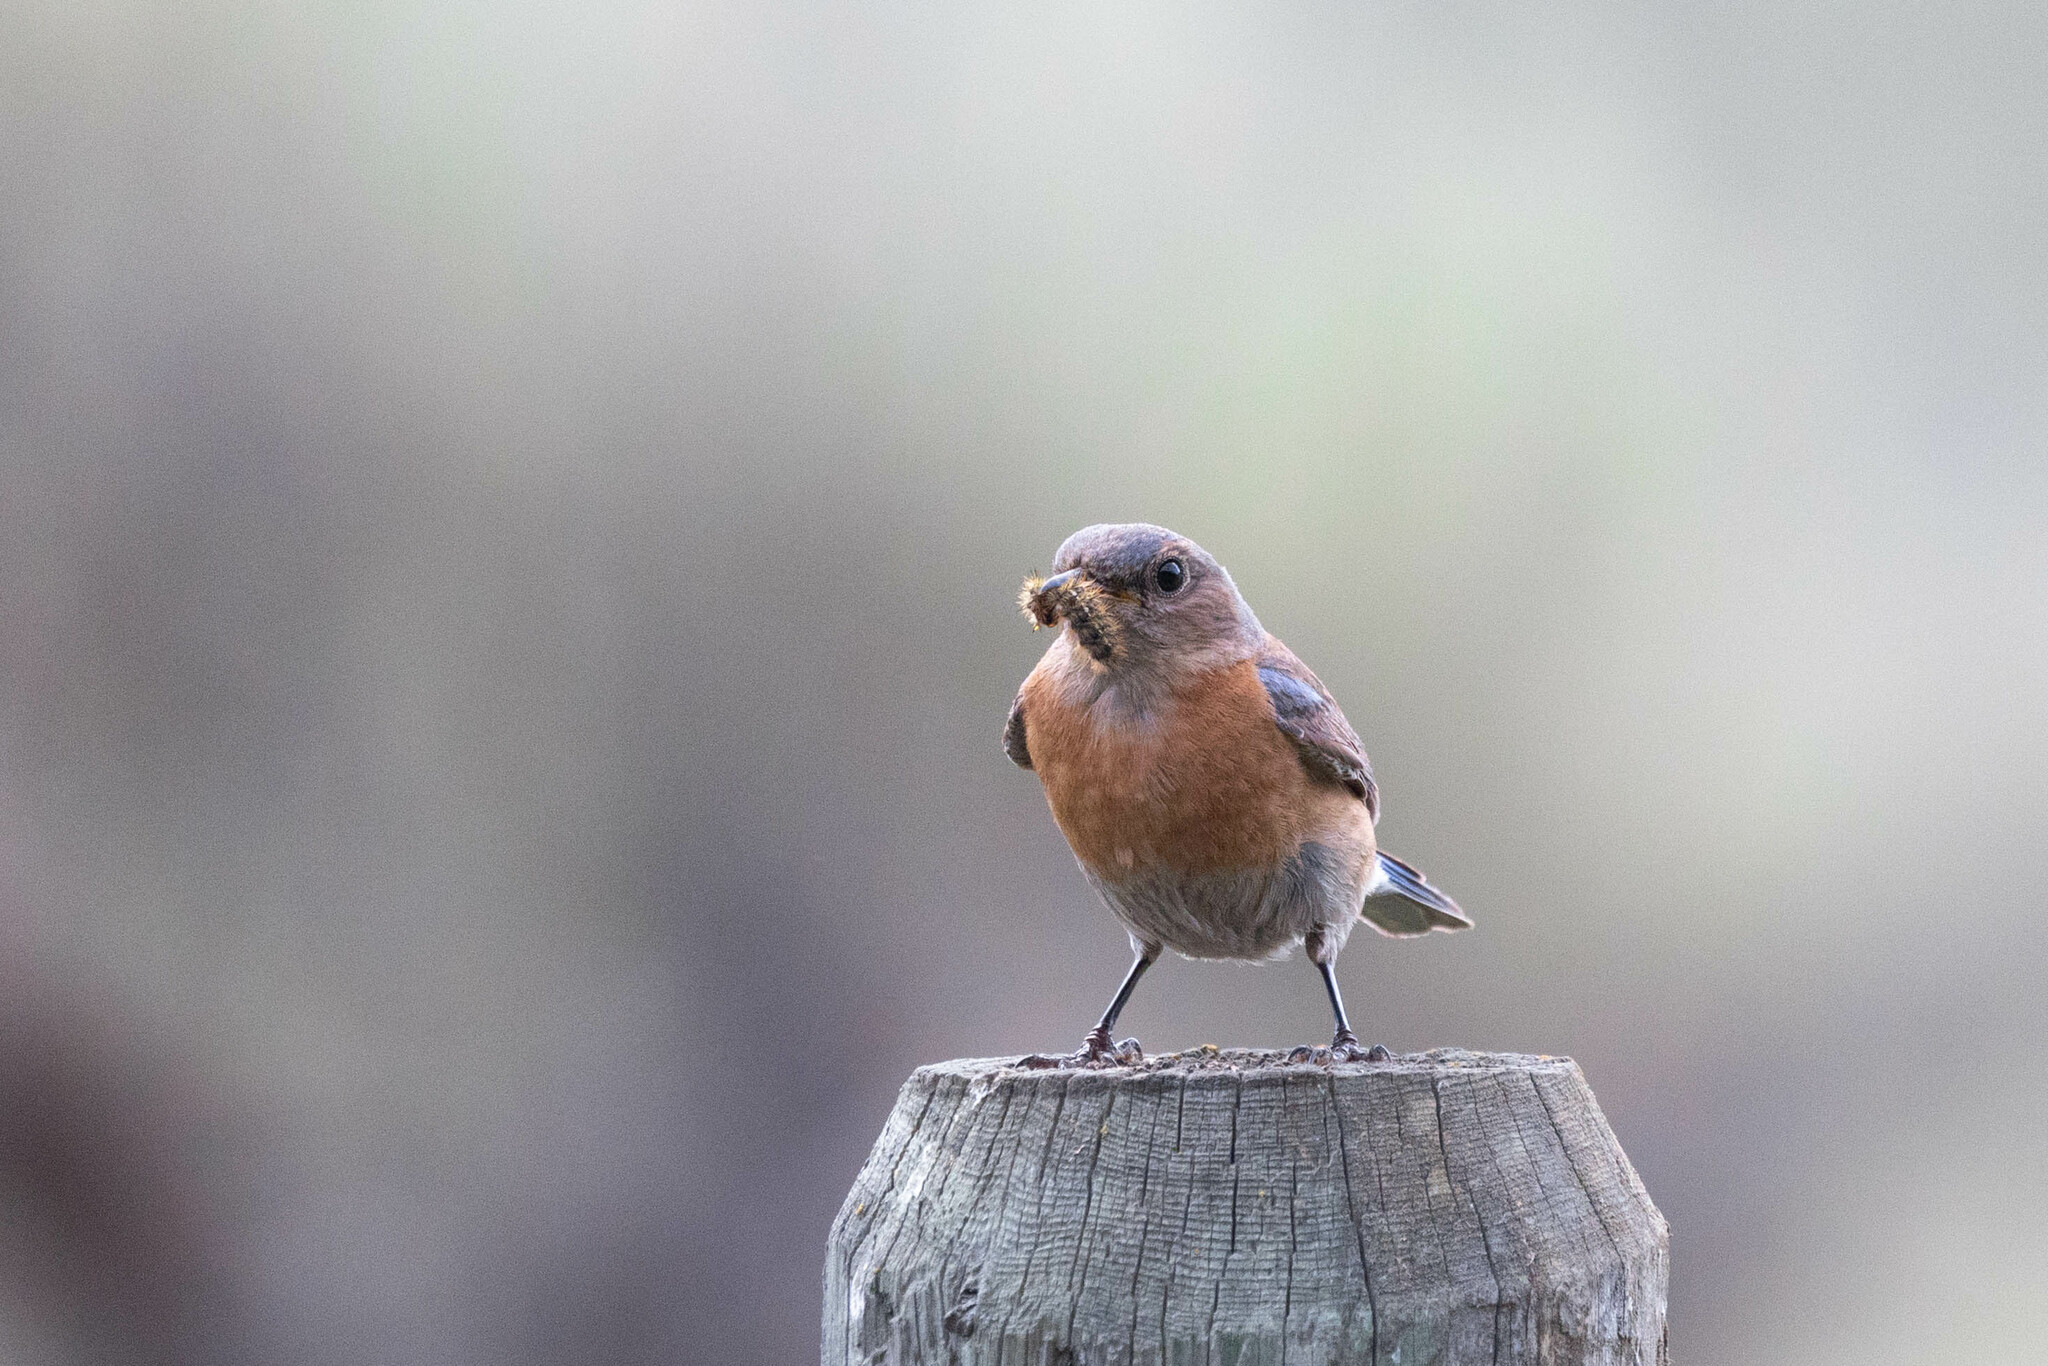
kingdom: Animalia
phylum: Chordata
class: Aves
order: Passeriformes
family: Turdidae
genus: Sialia
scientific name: Sialia mexicana
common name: Western bluebird
